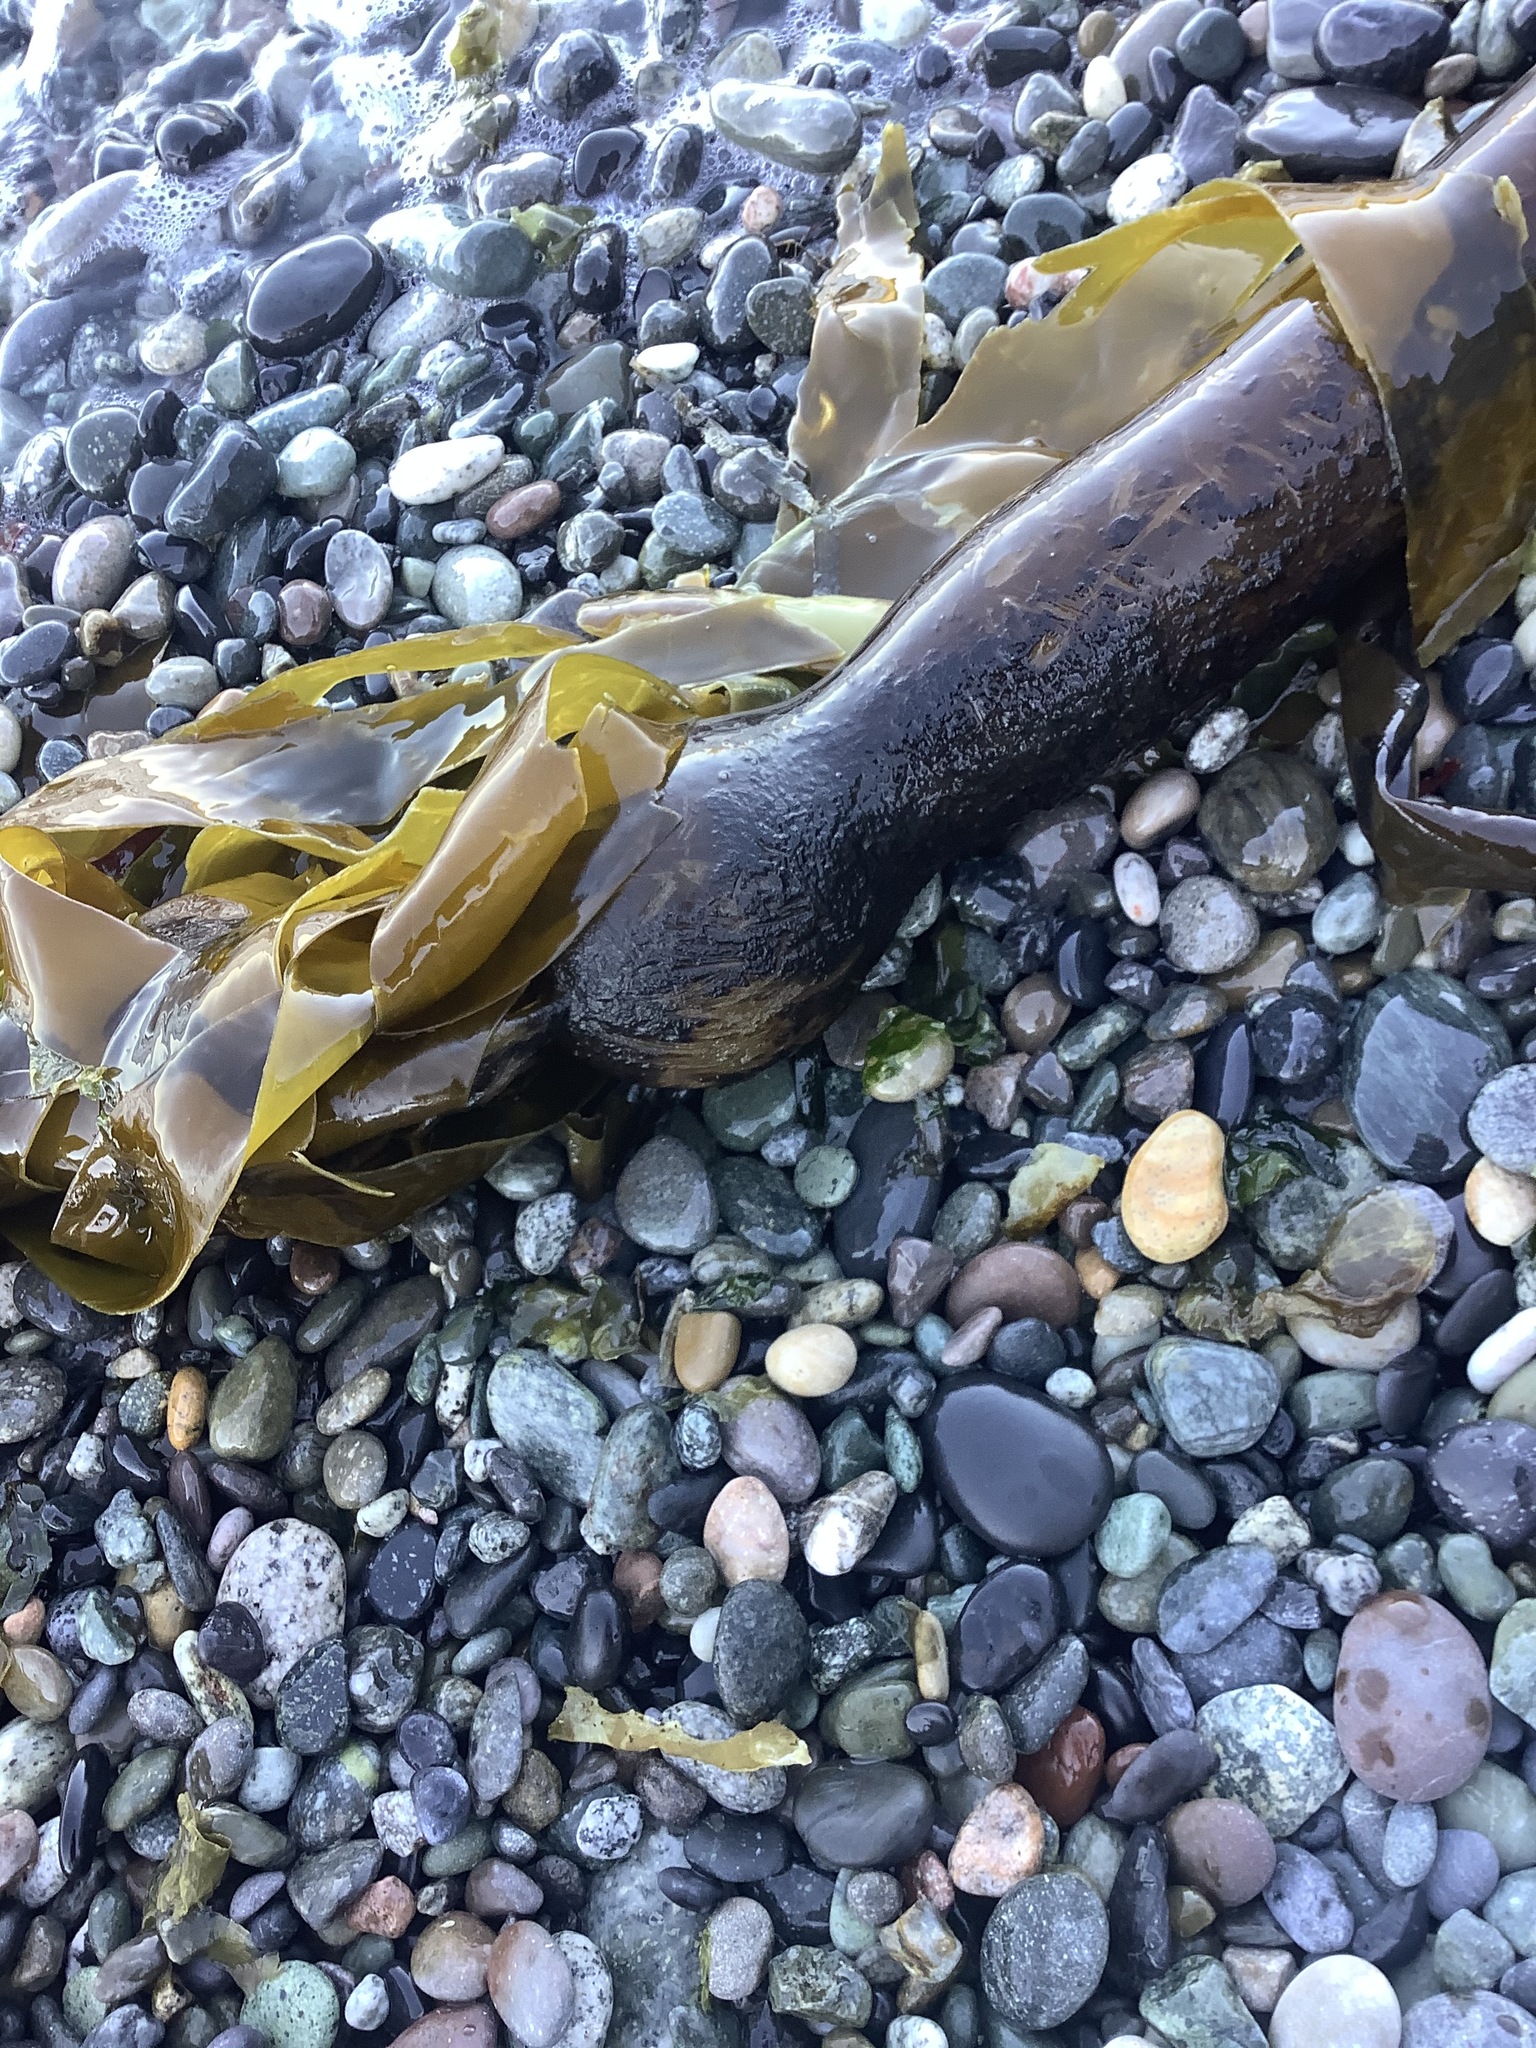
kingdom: Chromista
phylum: Ochrophyta
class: Phaeophyceae
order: Laminariales
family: Laminariaceae
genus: Nereocystis
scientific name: Nereocystis luetkeana
